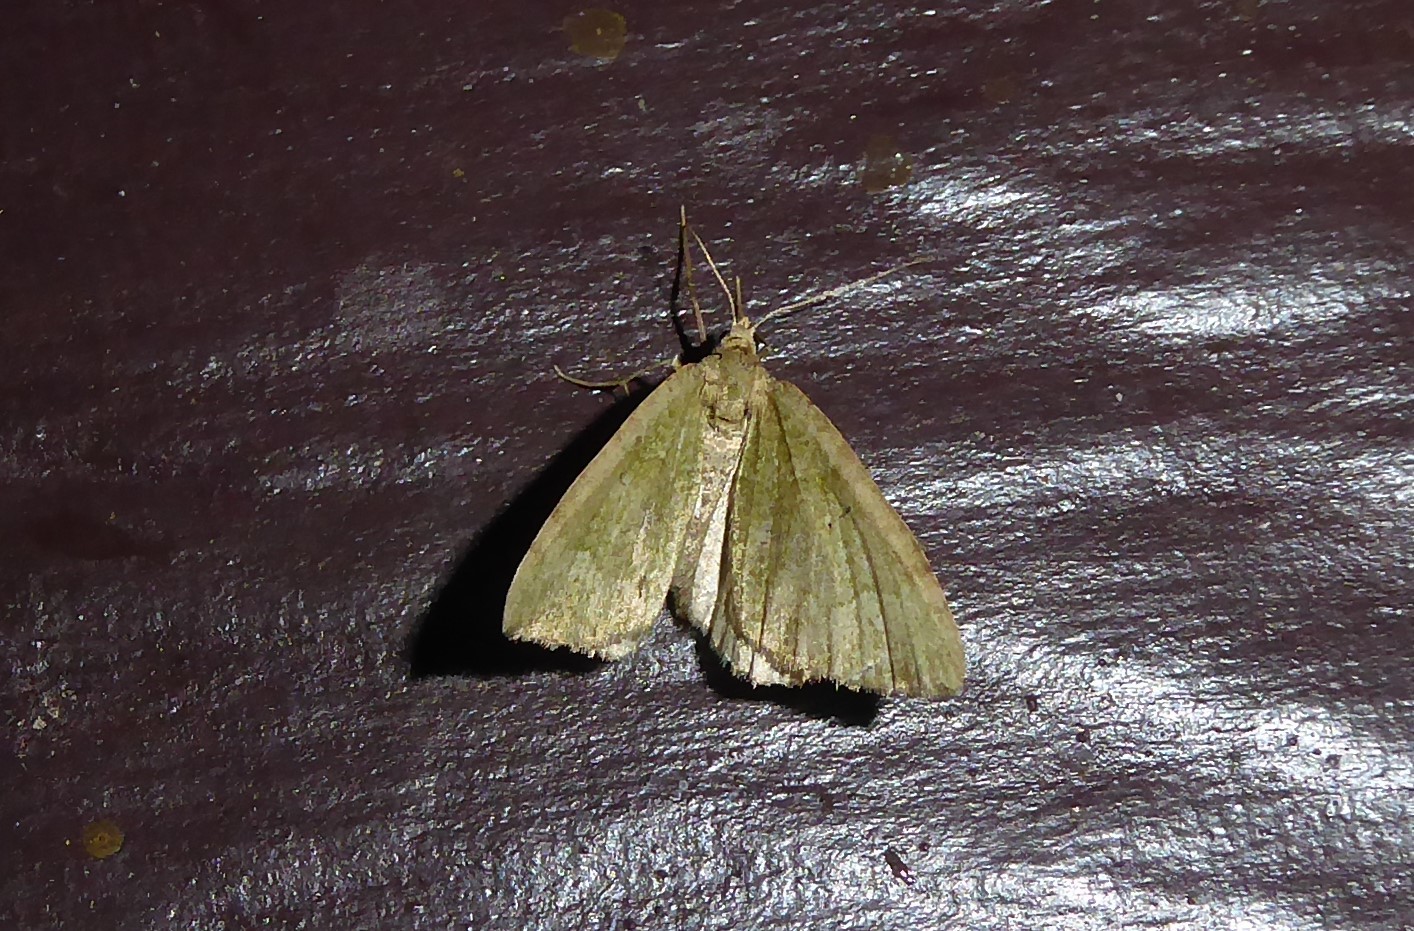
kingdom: Animalia
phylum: Arthropoda
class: Insecta
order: Lepidoptera
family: Geometridae
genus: Epyaxa
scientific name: Epyaxa rosearia
